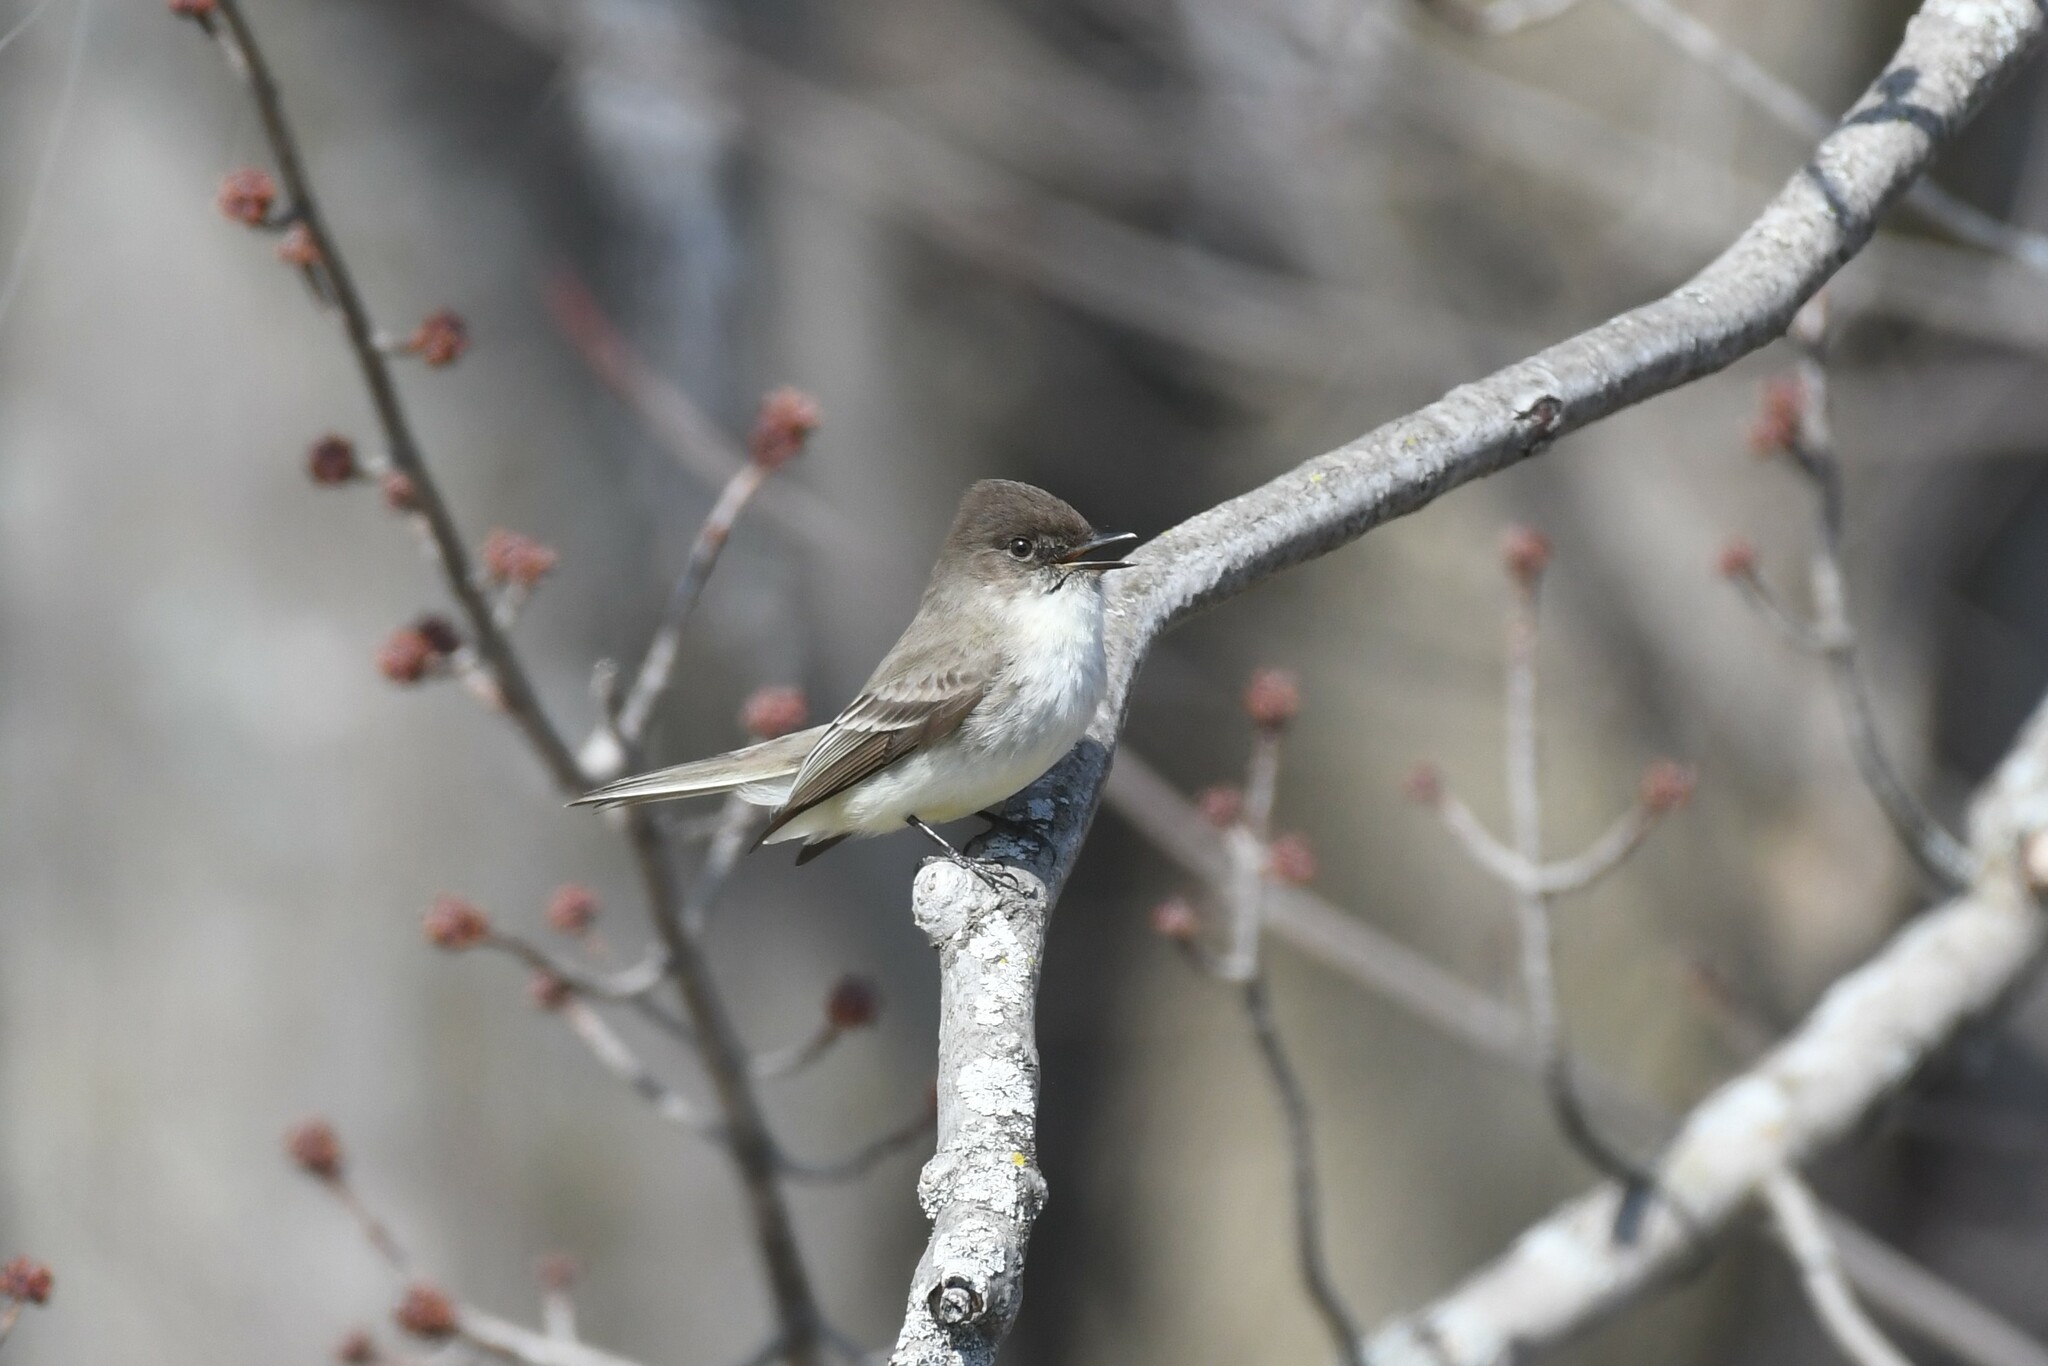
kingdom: Animalia
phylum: Chordata
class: Aves
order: Passeriformes
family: Tyrannidae
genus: Sayornis
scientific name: Sayornis phoebe
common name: Eastern phoebe
